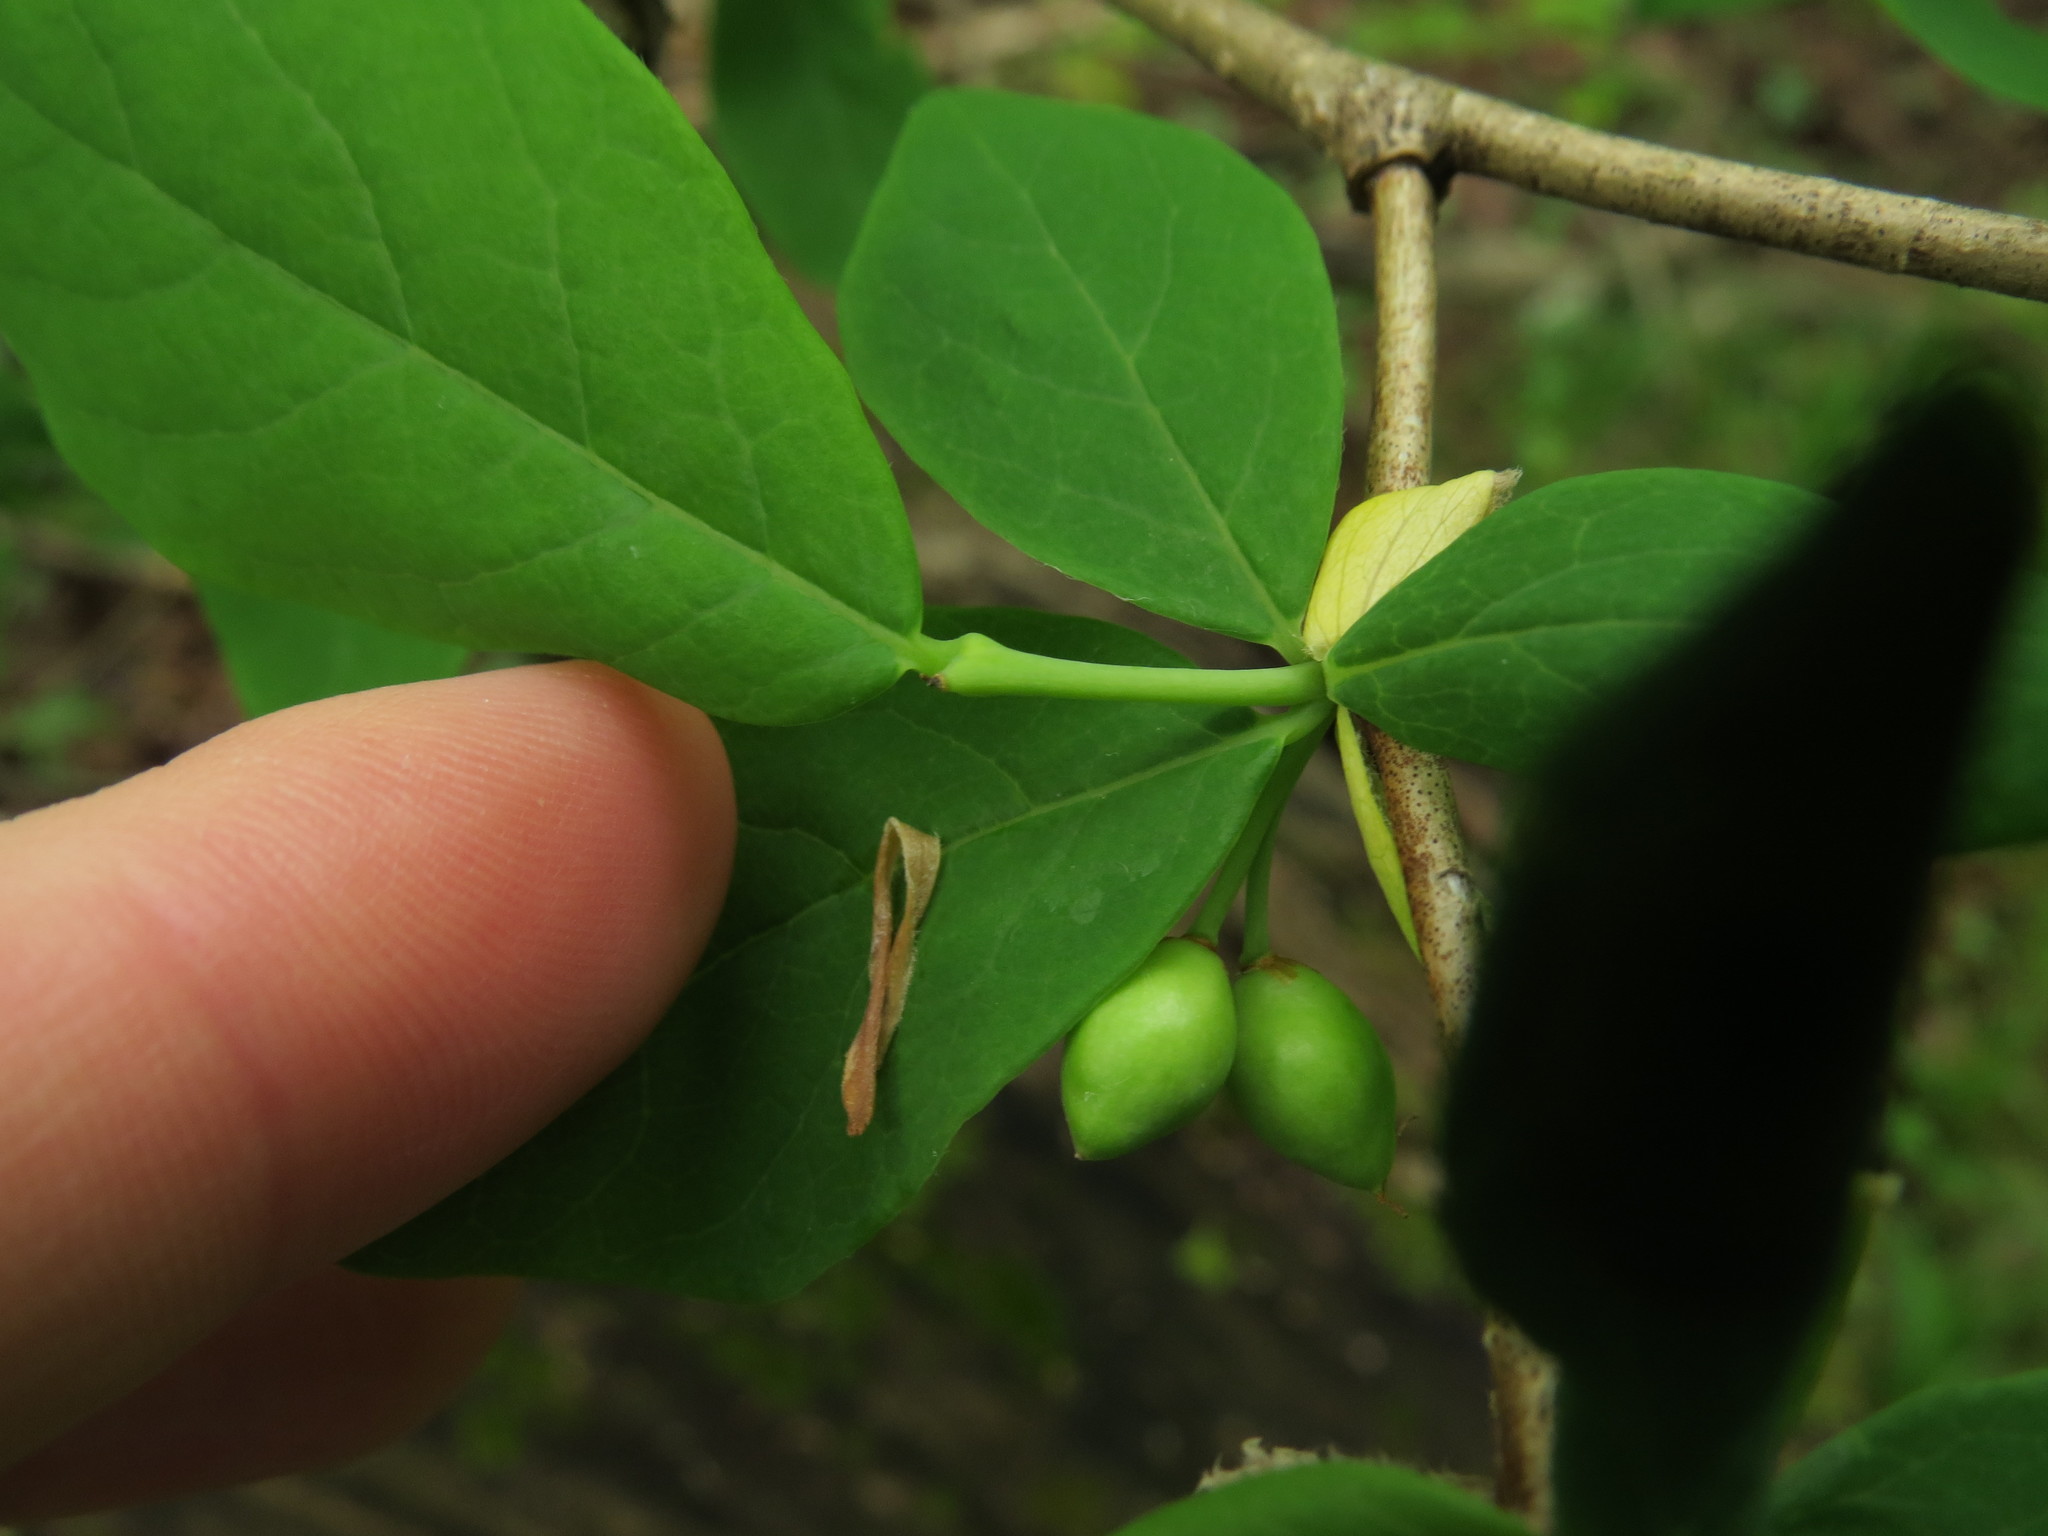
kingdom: Plantae
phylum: Tracheophyta
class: Magnoliopsida
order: Malvales
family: Thymelaeaceae
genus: Dirca
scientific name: Dirca palustris
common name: Leatherwood
